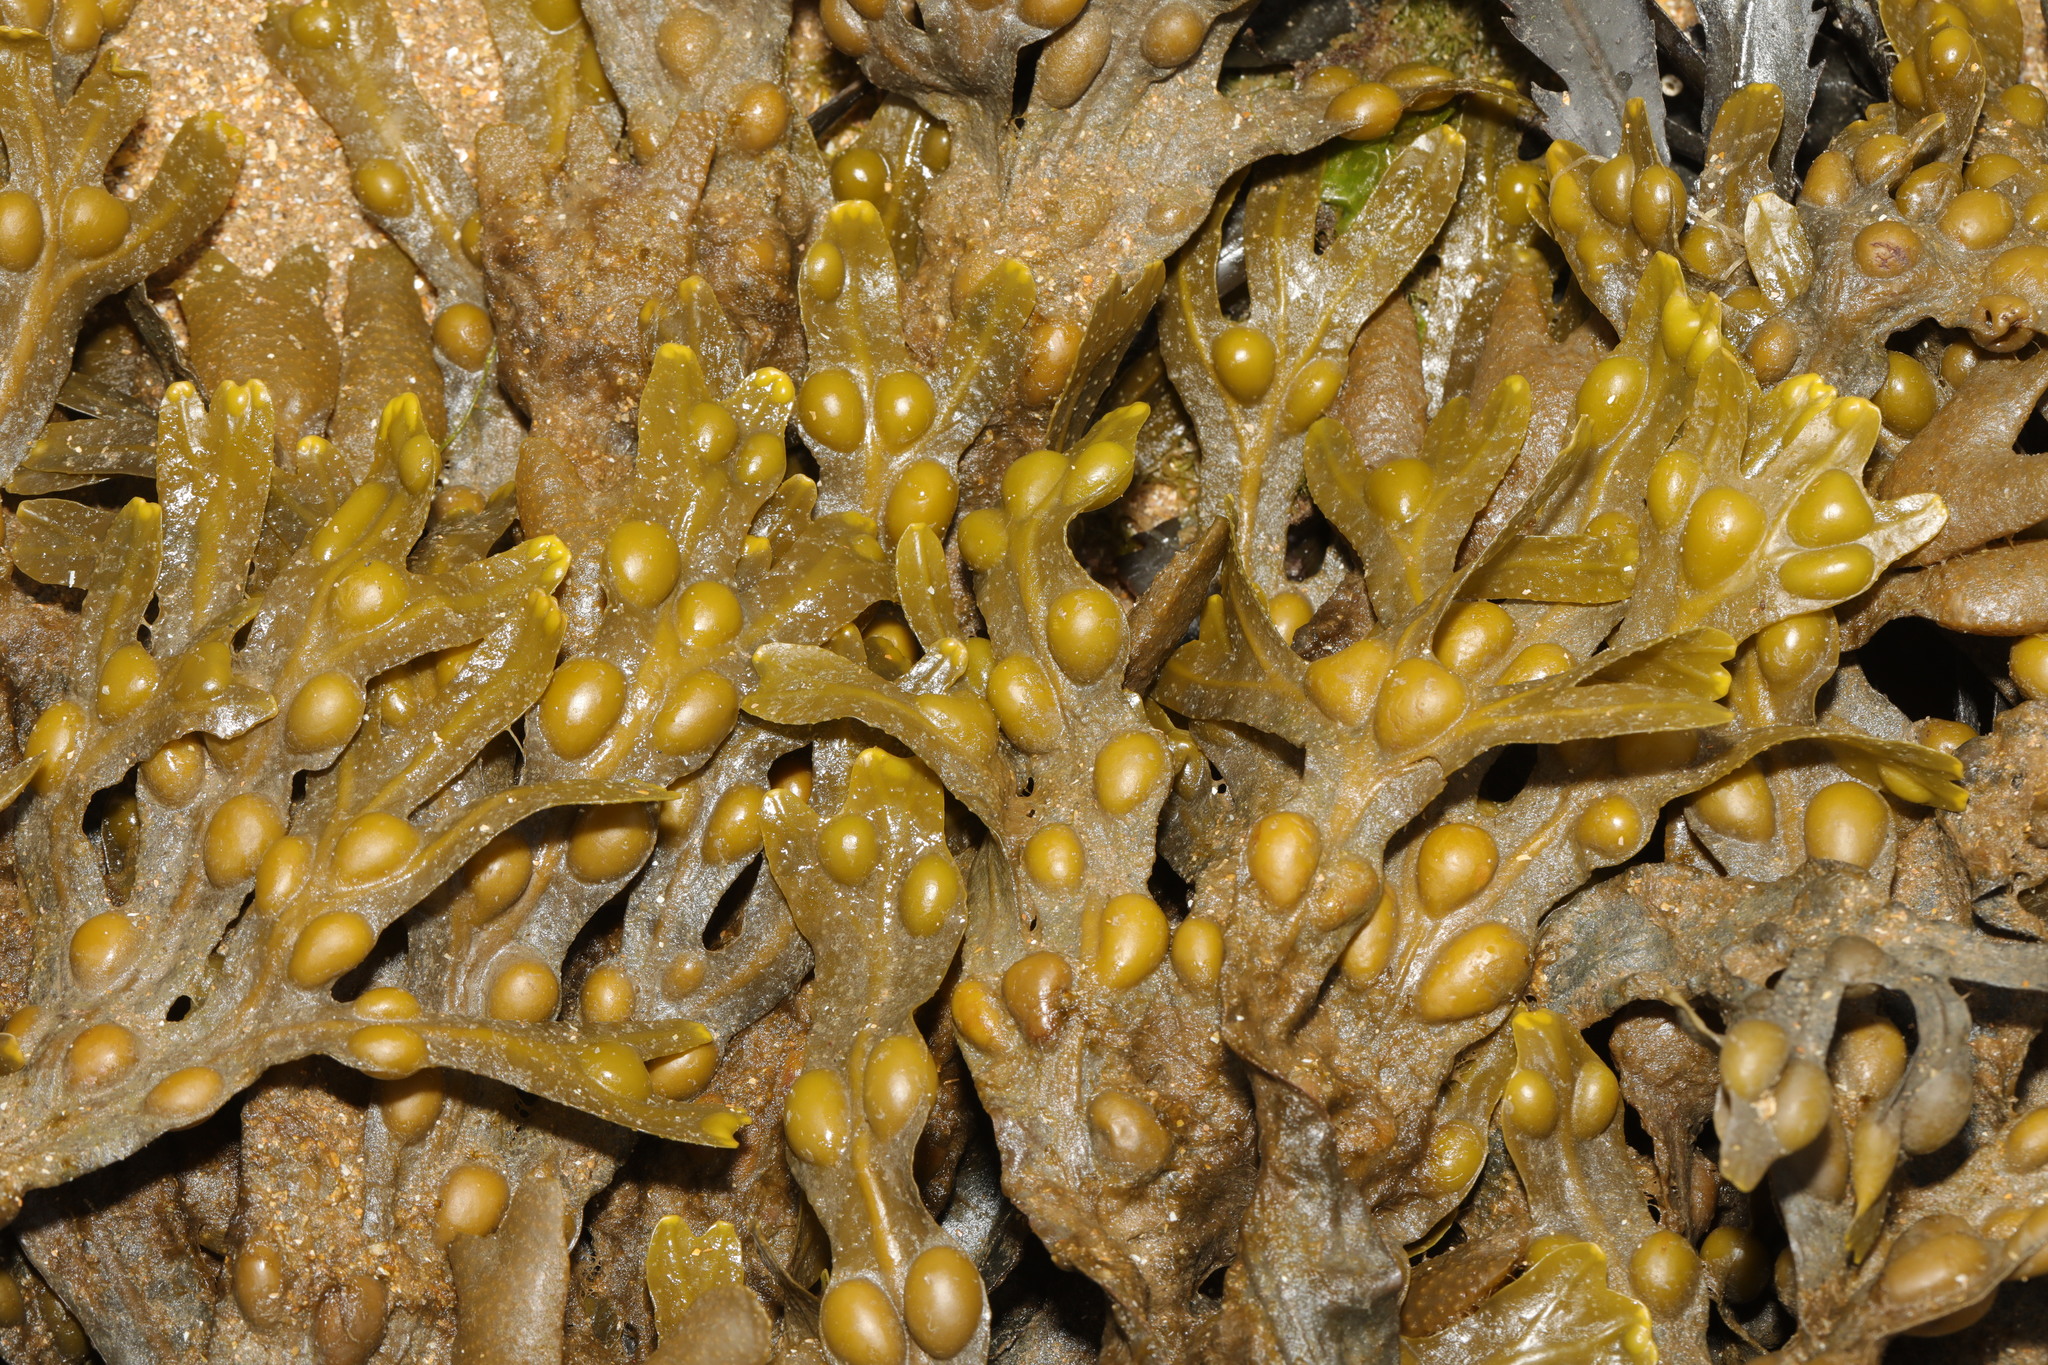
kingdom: Chromista
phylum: Ochrophyta
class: Phaeophyceae
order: Fucales
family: Fucaceae
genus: Fucus
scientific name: Fucus vesiculosus
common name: Bladder wrack
